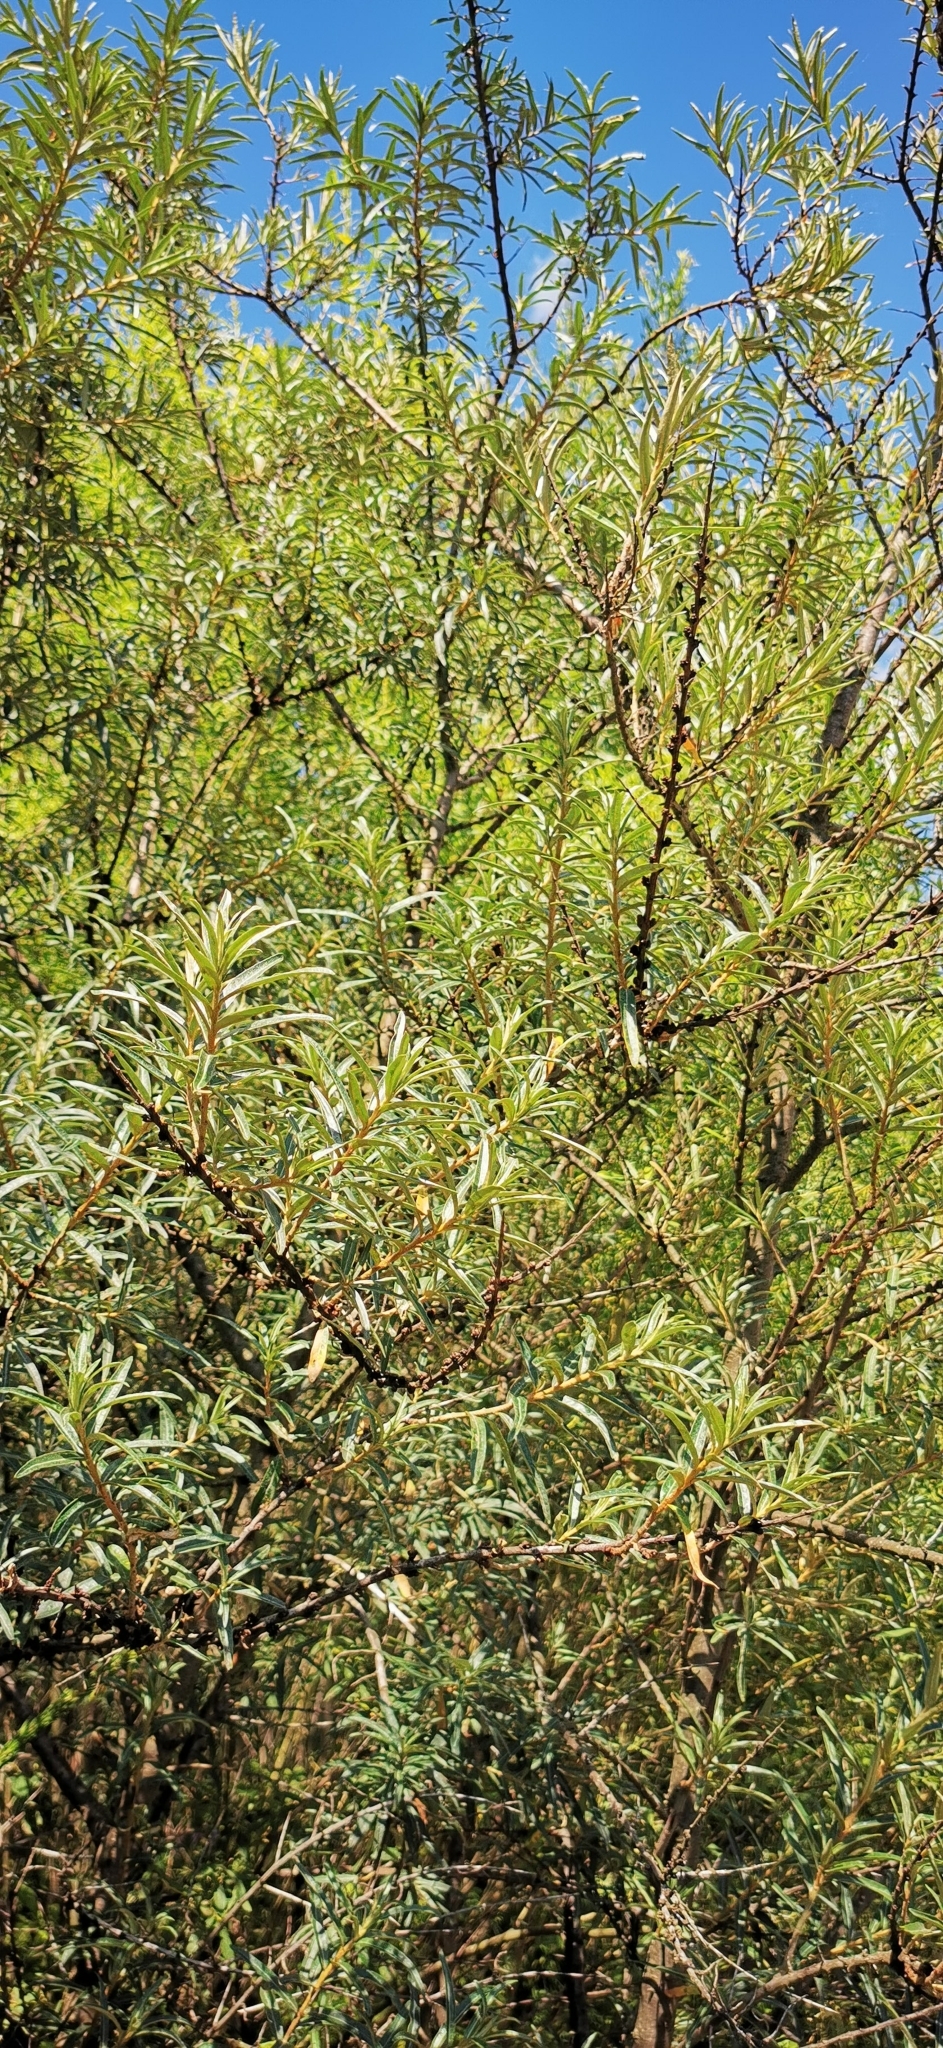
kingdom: Plantae
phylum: Tracheophyta
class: Magnoliopsida
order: Rosales
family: Elaeagnaceae
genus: Hippophae
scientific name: Hippophae rhamnoides
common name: Sea-buckthorn
